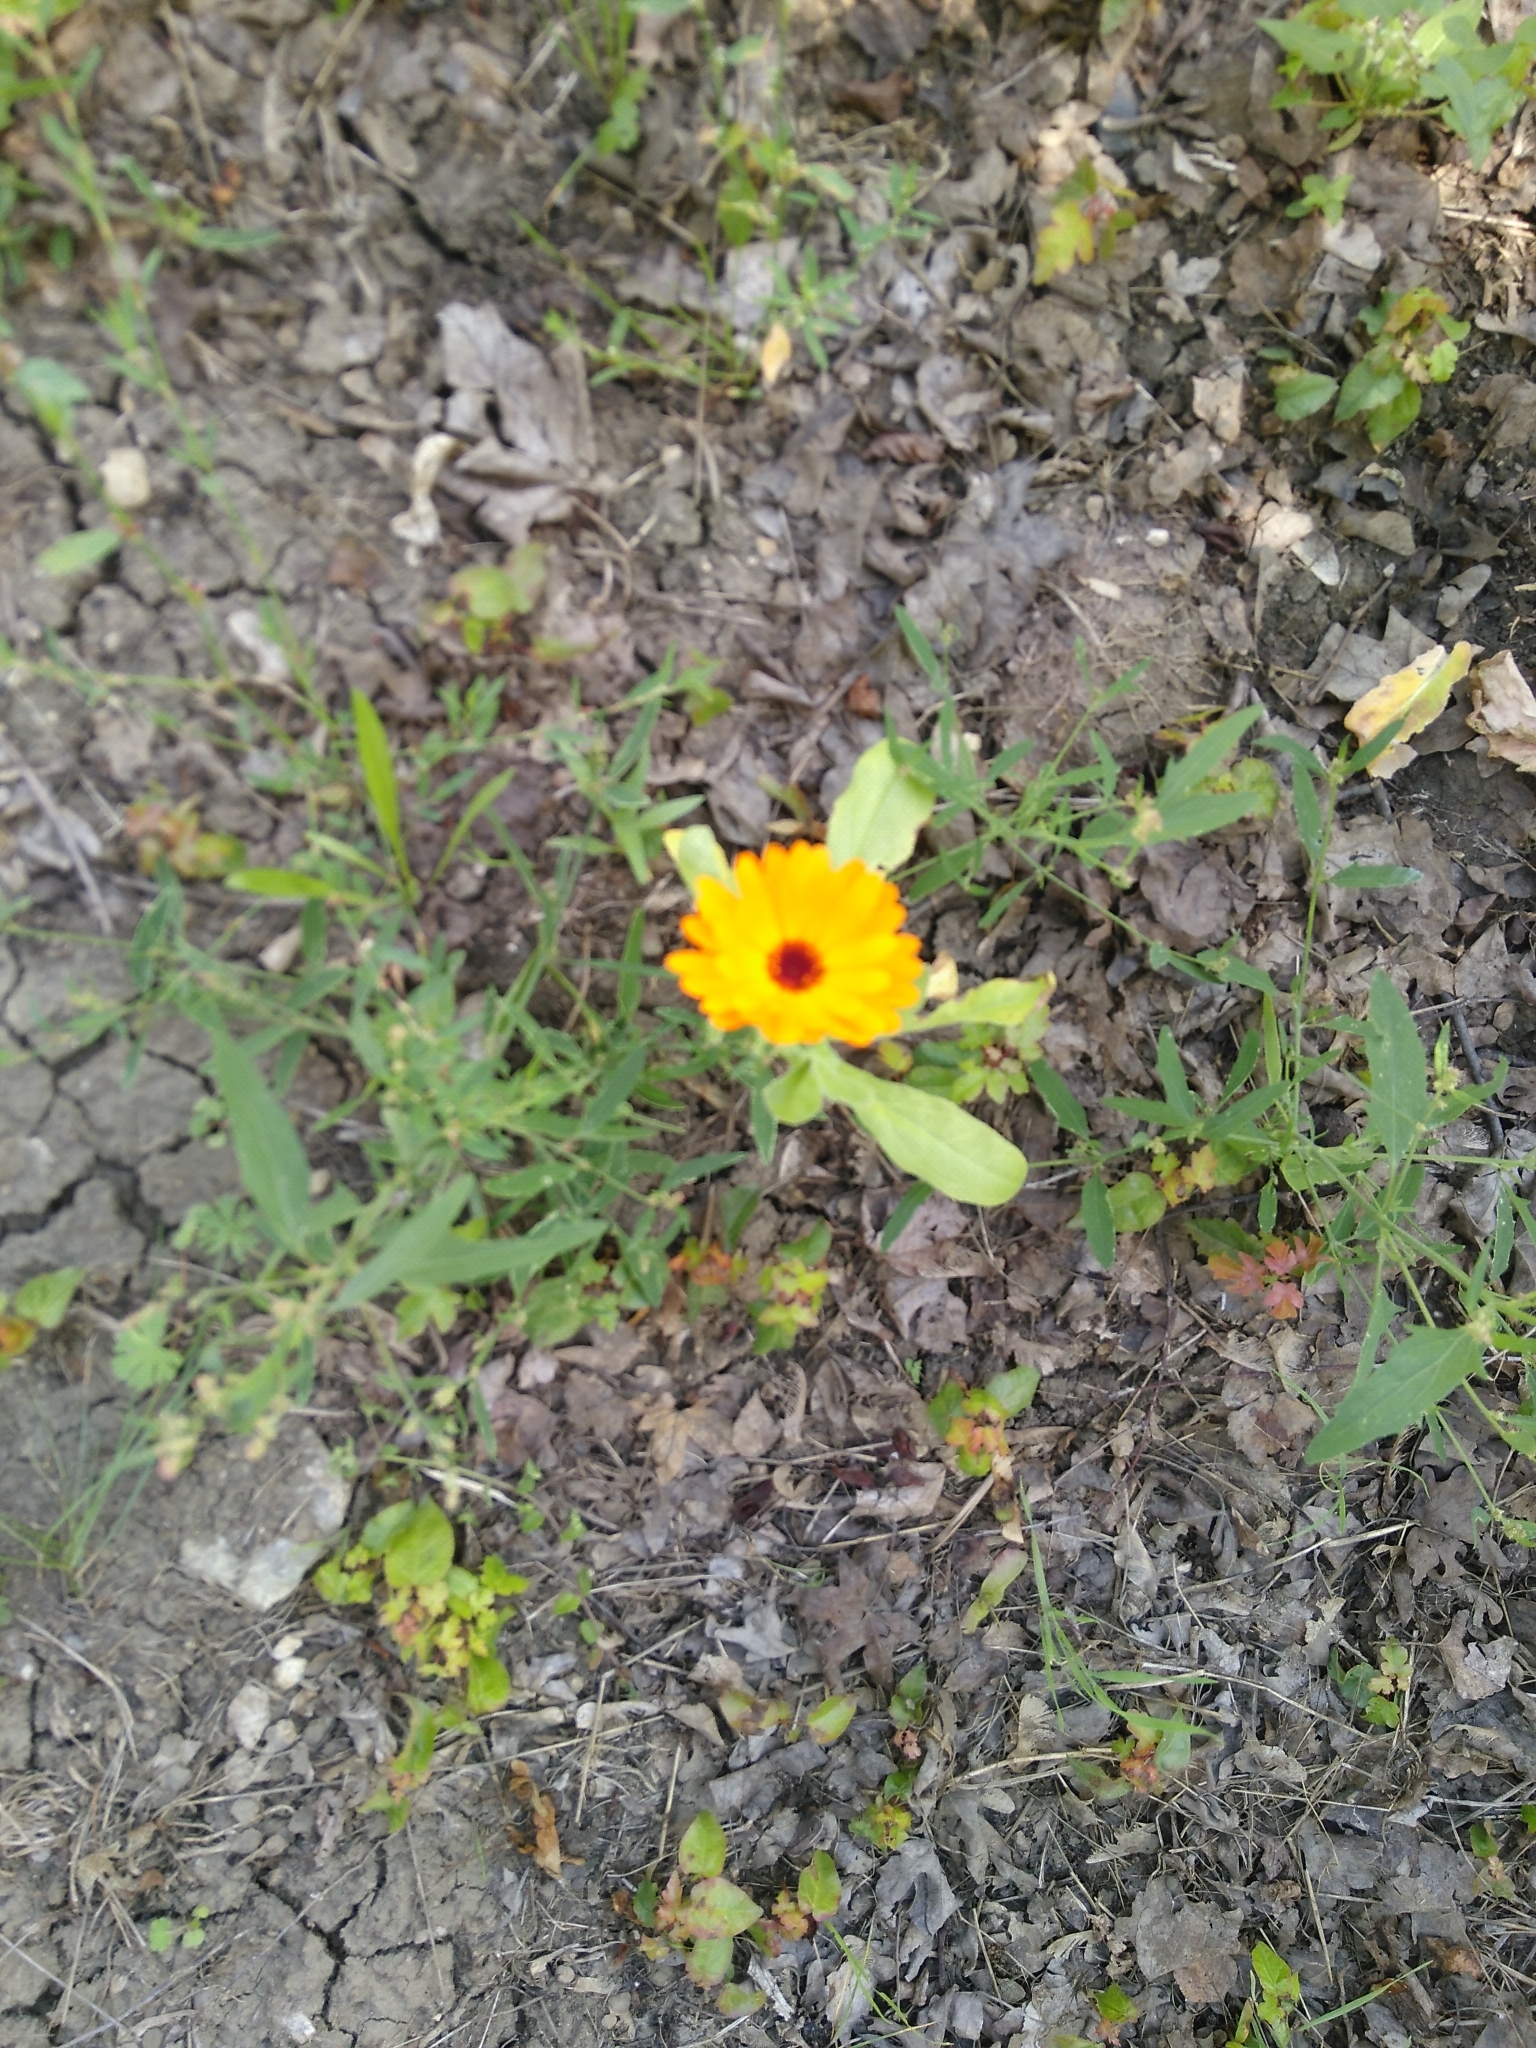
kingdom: Plantae
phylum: Tracheophyta
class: Magnoliopsida
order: Asterales
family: Asteraceae
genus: Calendula
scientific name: Calendula officinalis
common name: Pot marigold
